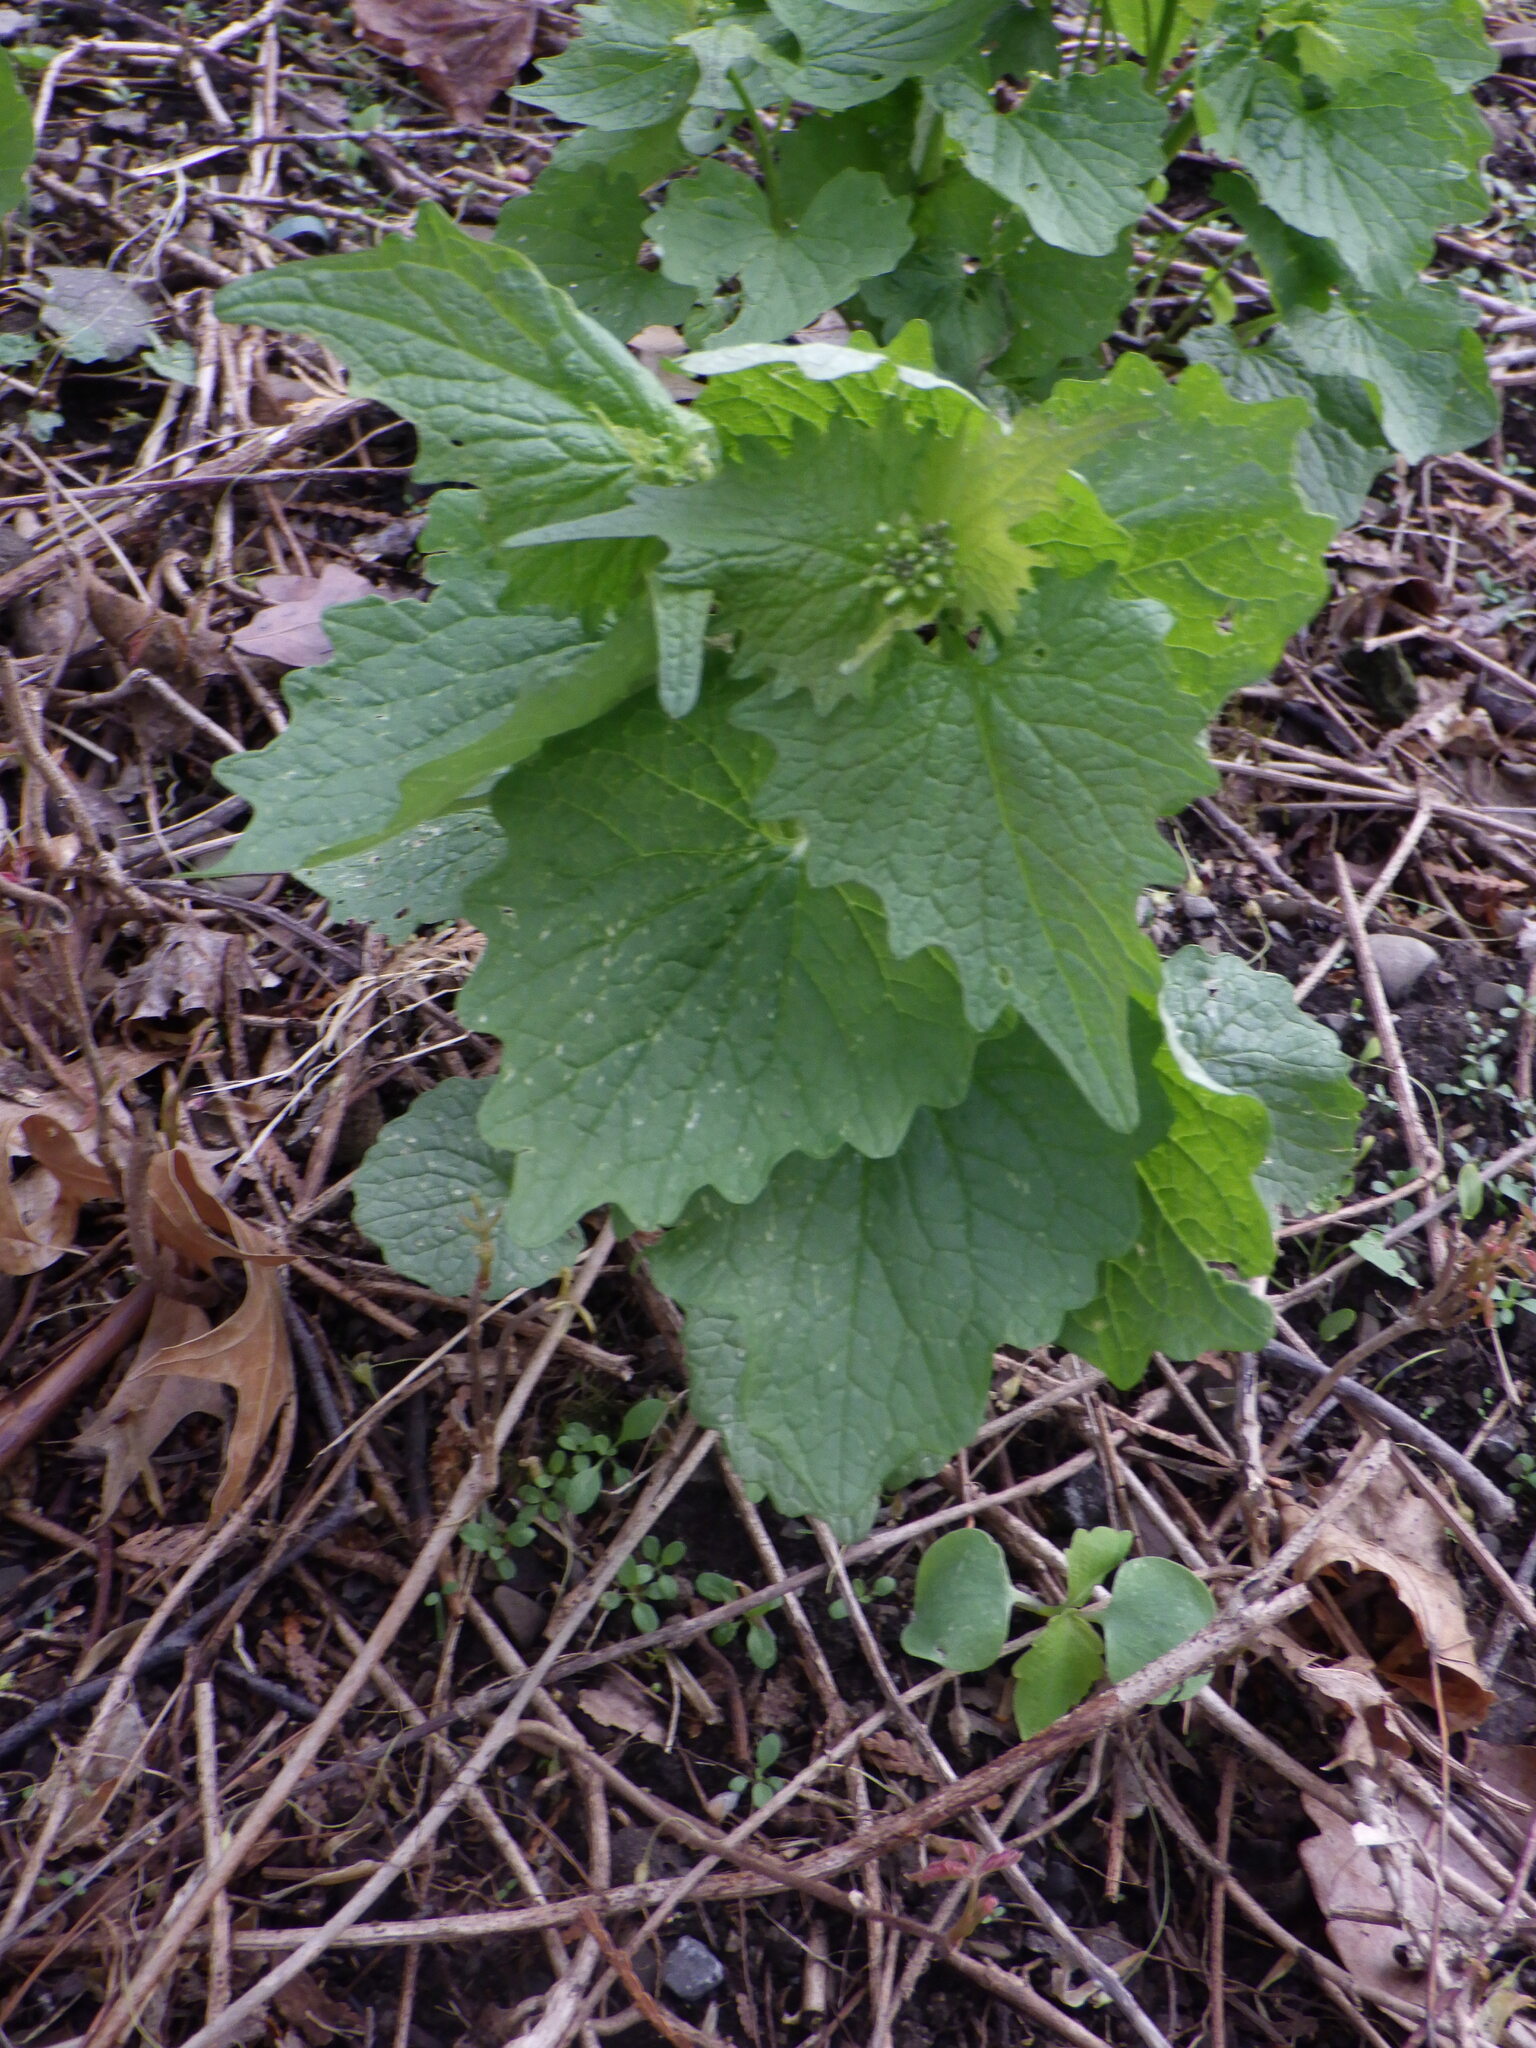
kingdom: Plantae
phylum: Tracheophyta
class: Magnoliopsida
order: Brassicales
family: Brassicaceae
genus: Alliaria
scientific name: Alliaria petiolata
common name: Garlic mustard
